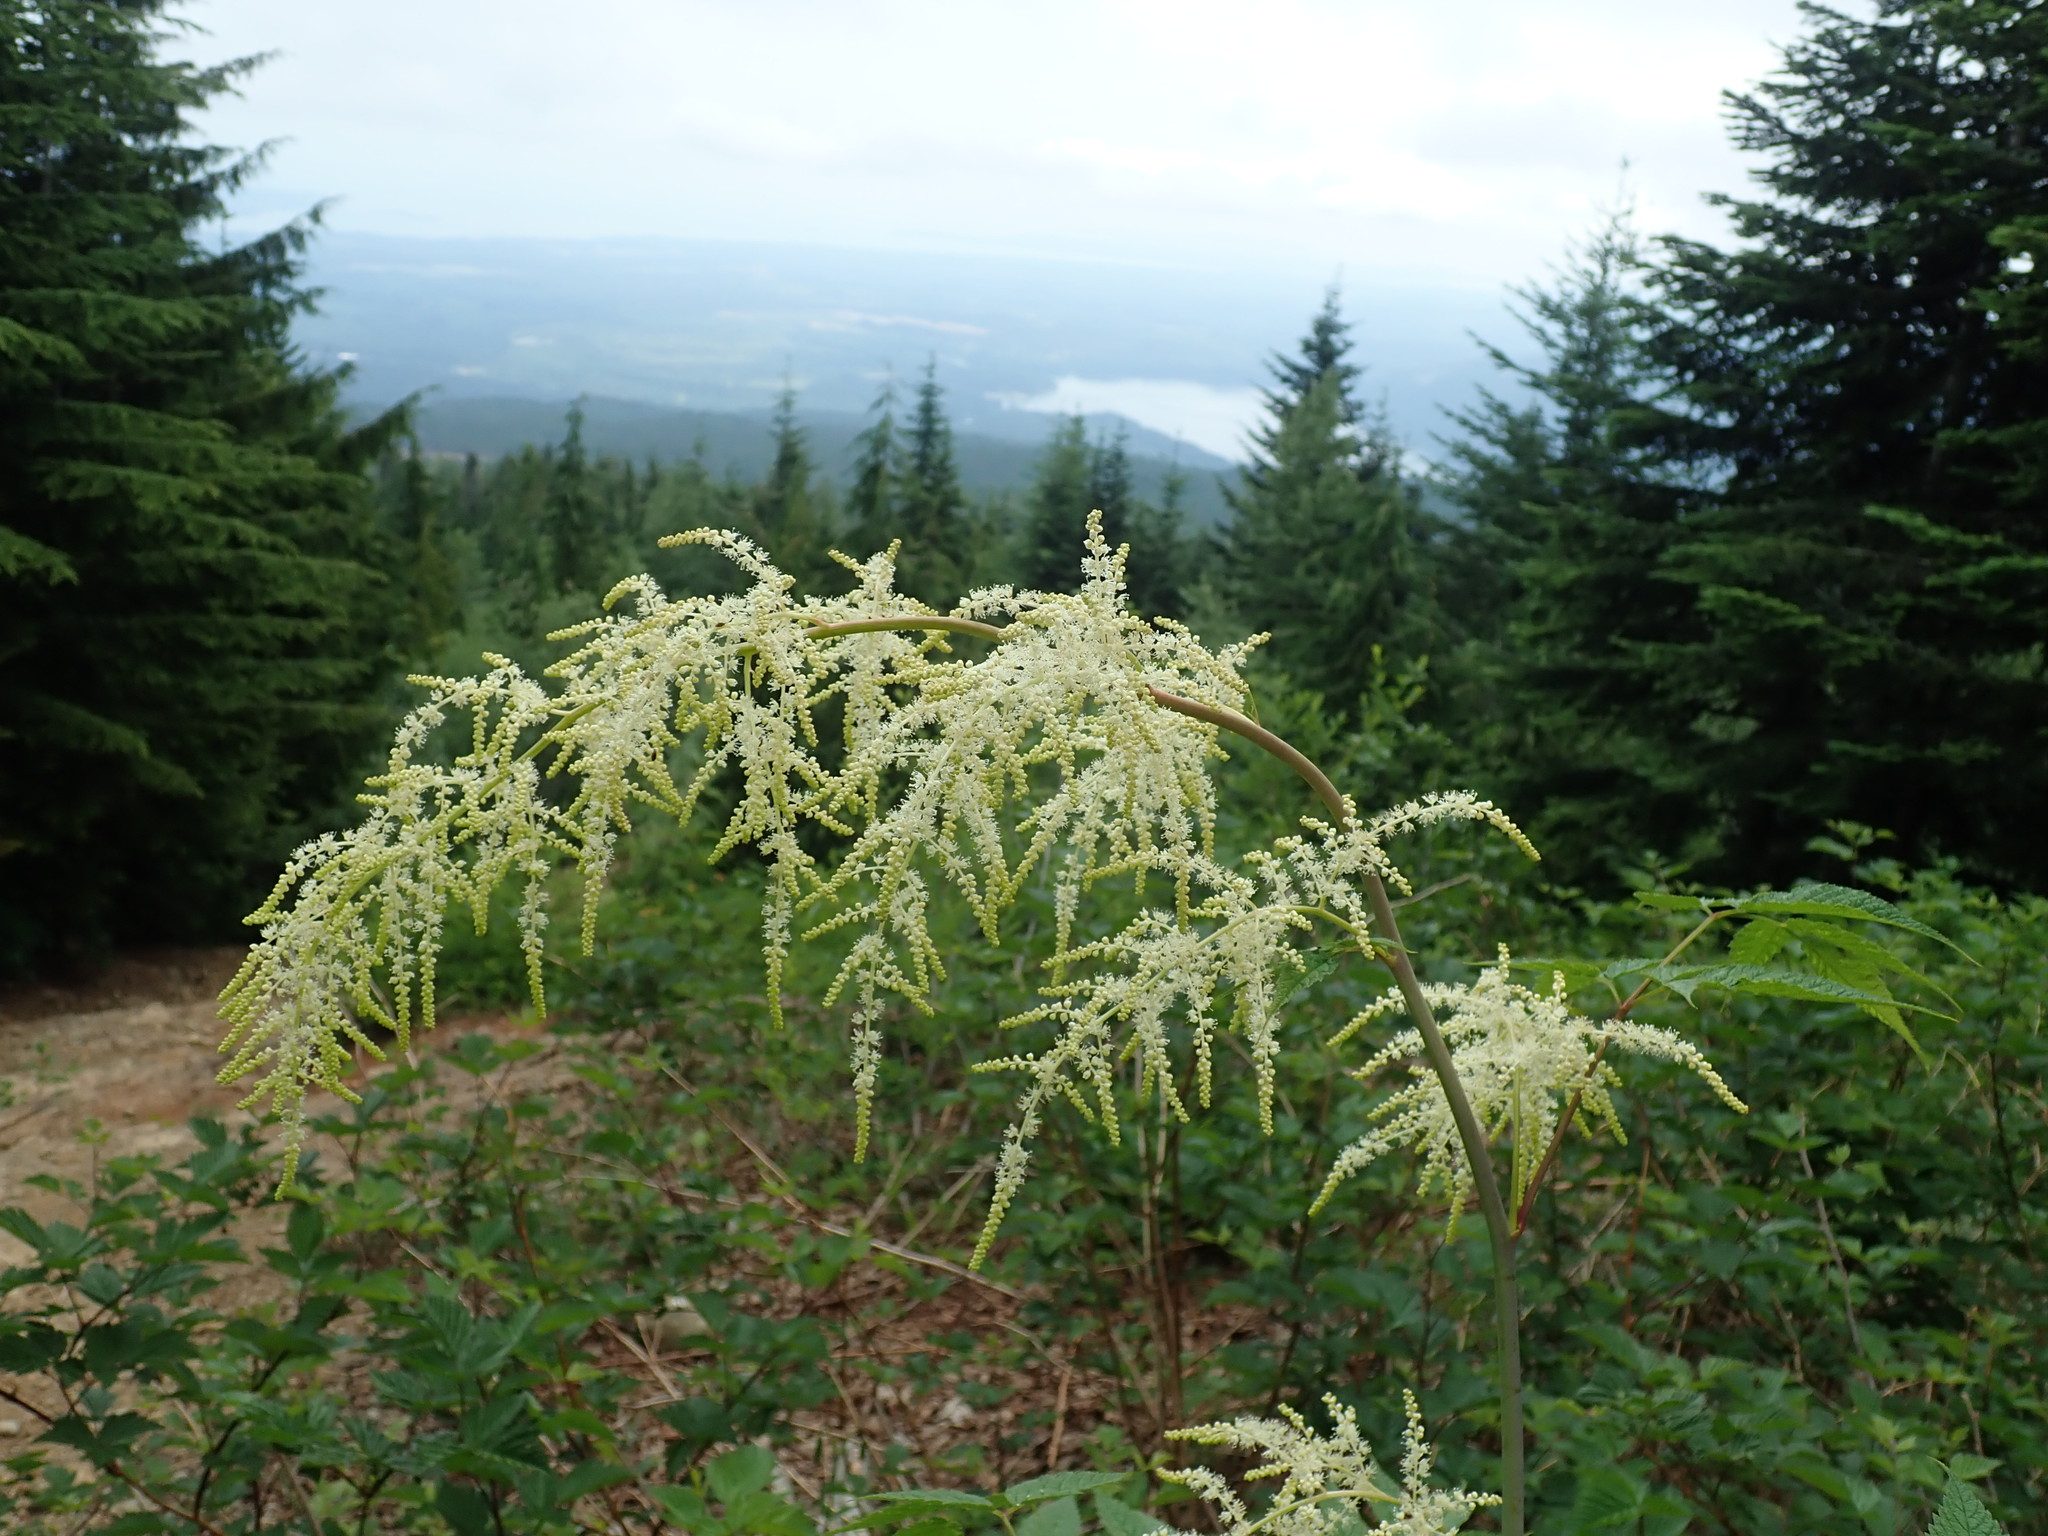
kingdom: Plantae
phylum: Tracheophyta
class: Magnoliopsida
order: Rosales
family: Rosaceae
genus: Aruncus
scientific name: Aruncus dioicus
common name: Buck's-beard
